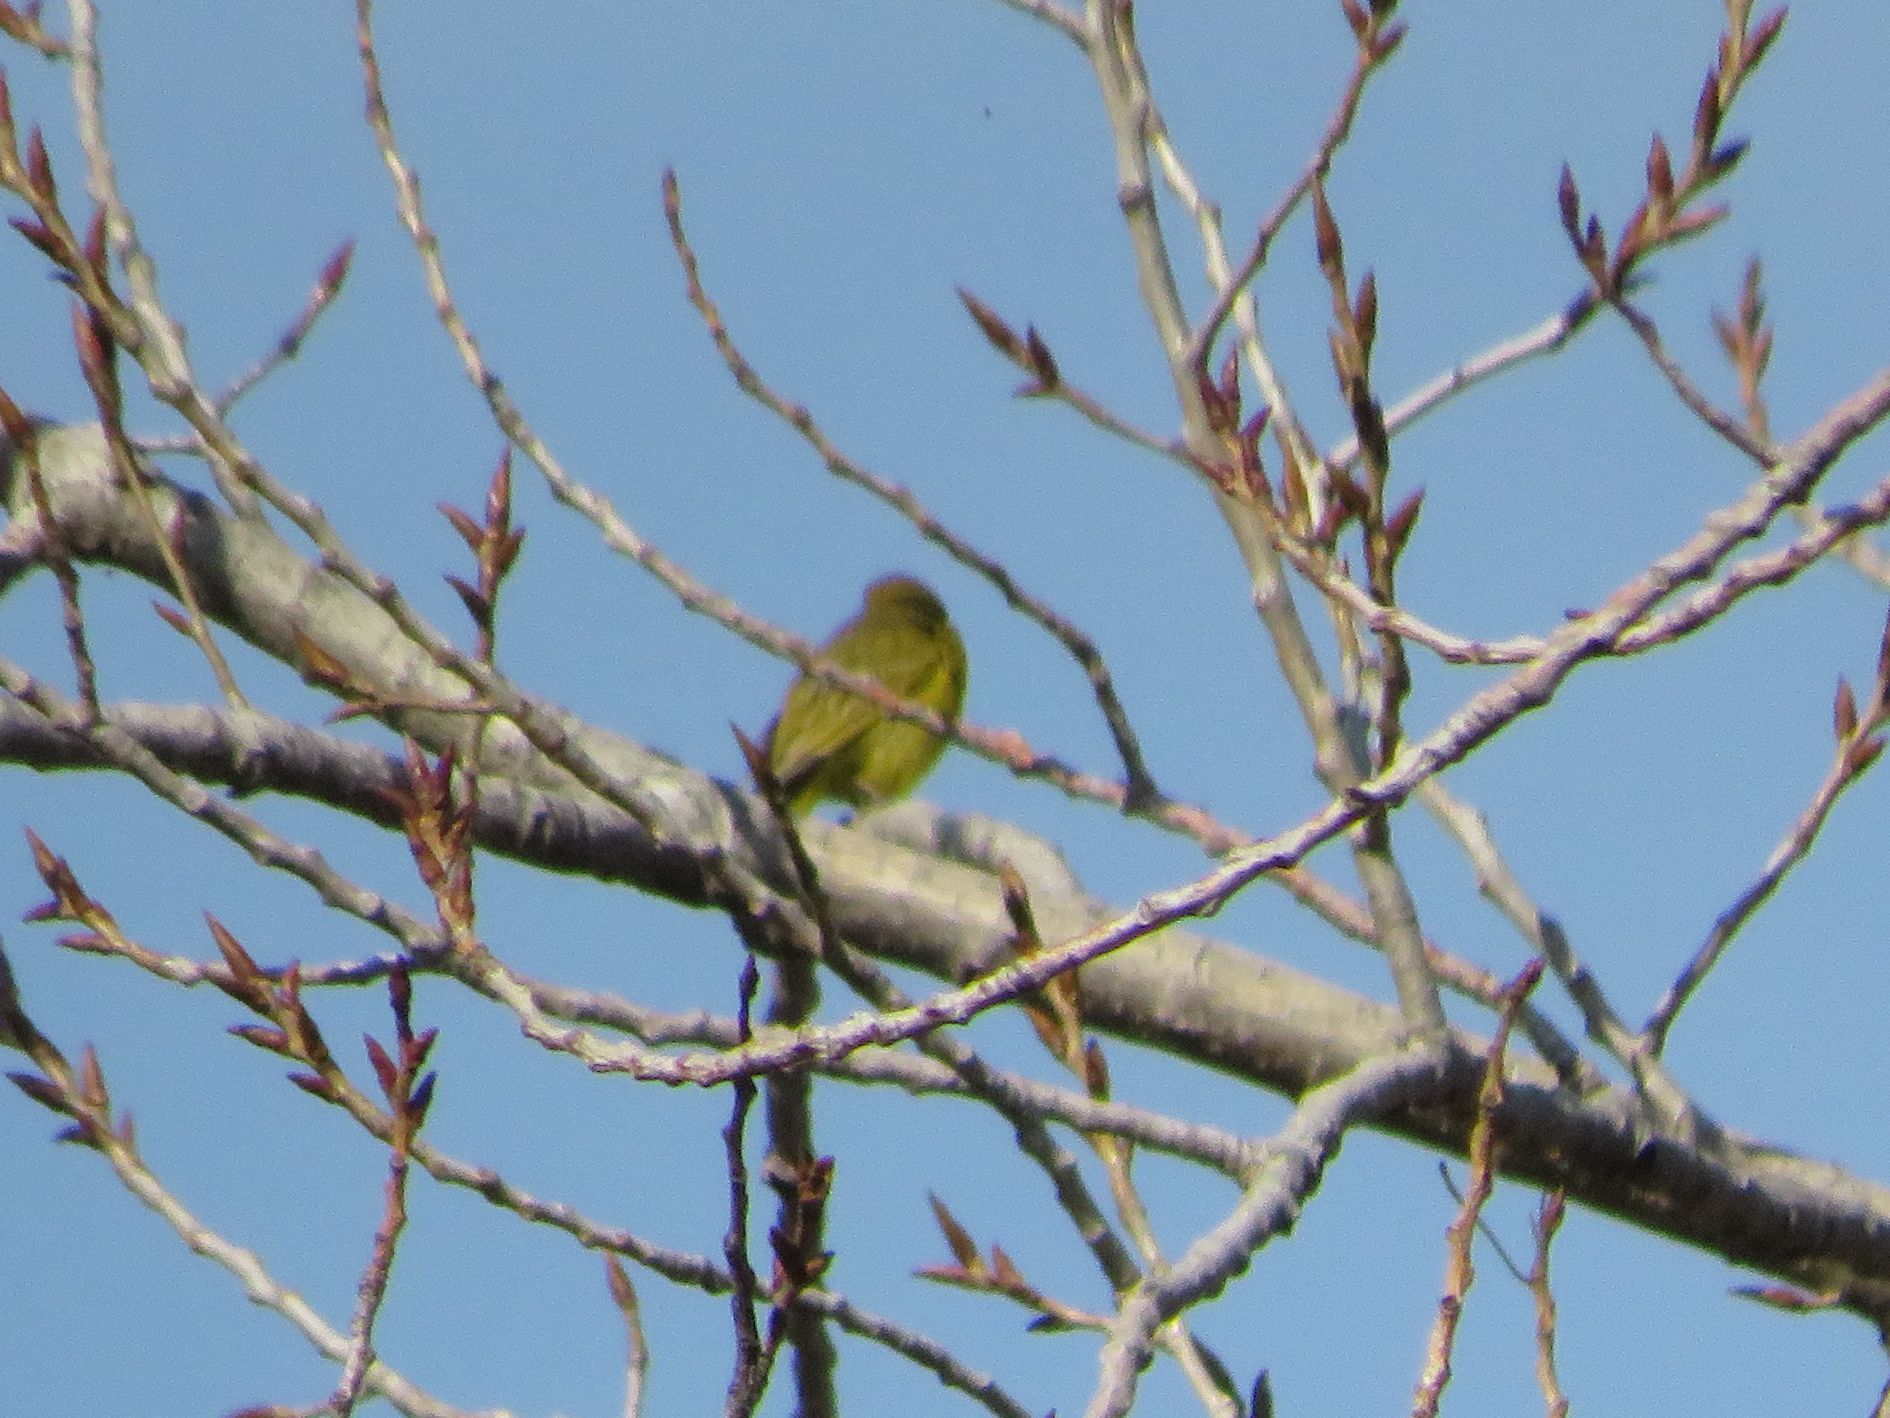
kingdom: Animalia
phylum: Chordata
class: Aves
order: Passeriformes
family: Thraupidae
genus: Sicalis
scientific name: Sicalis flaveola
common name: Saffron finch
